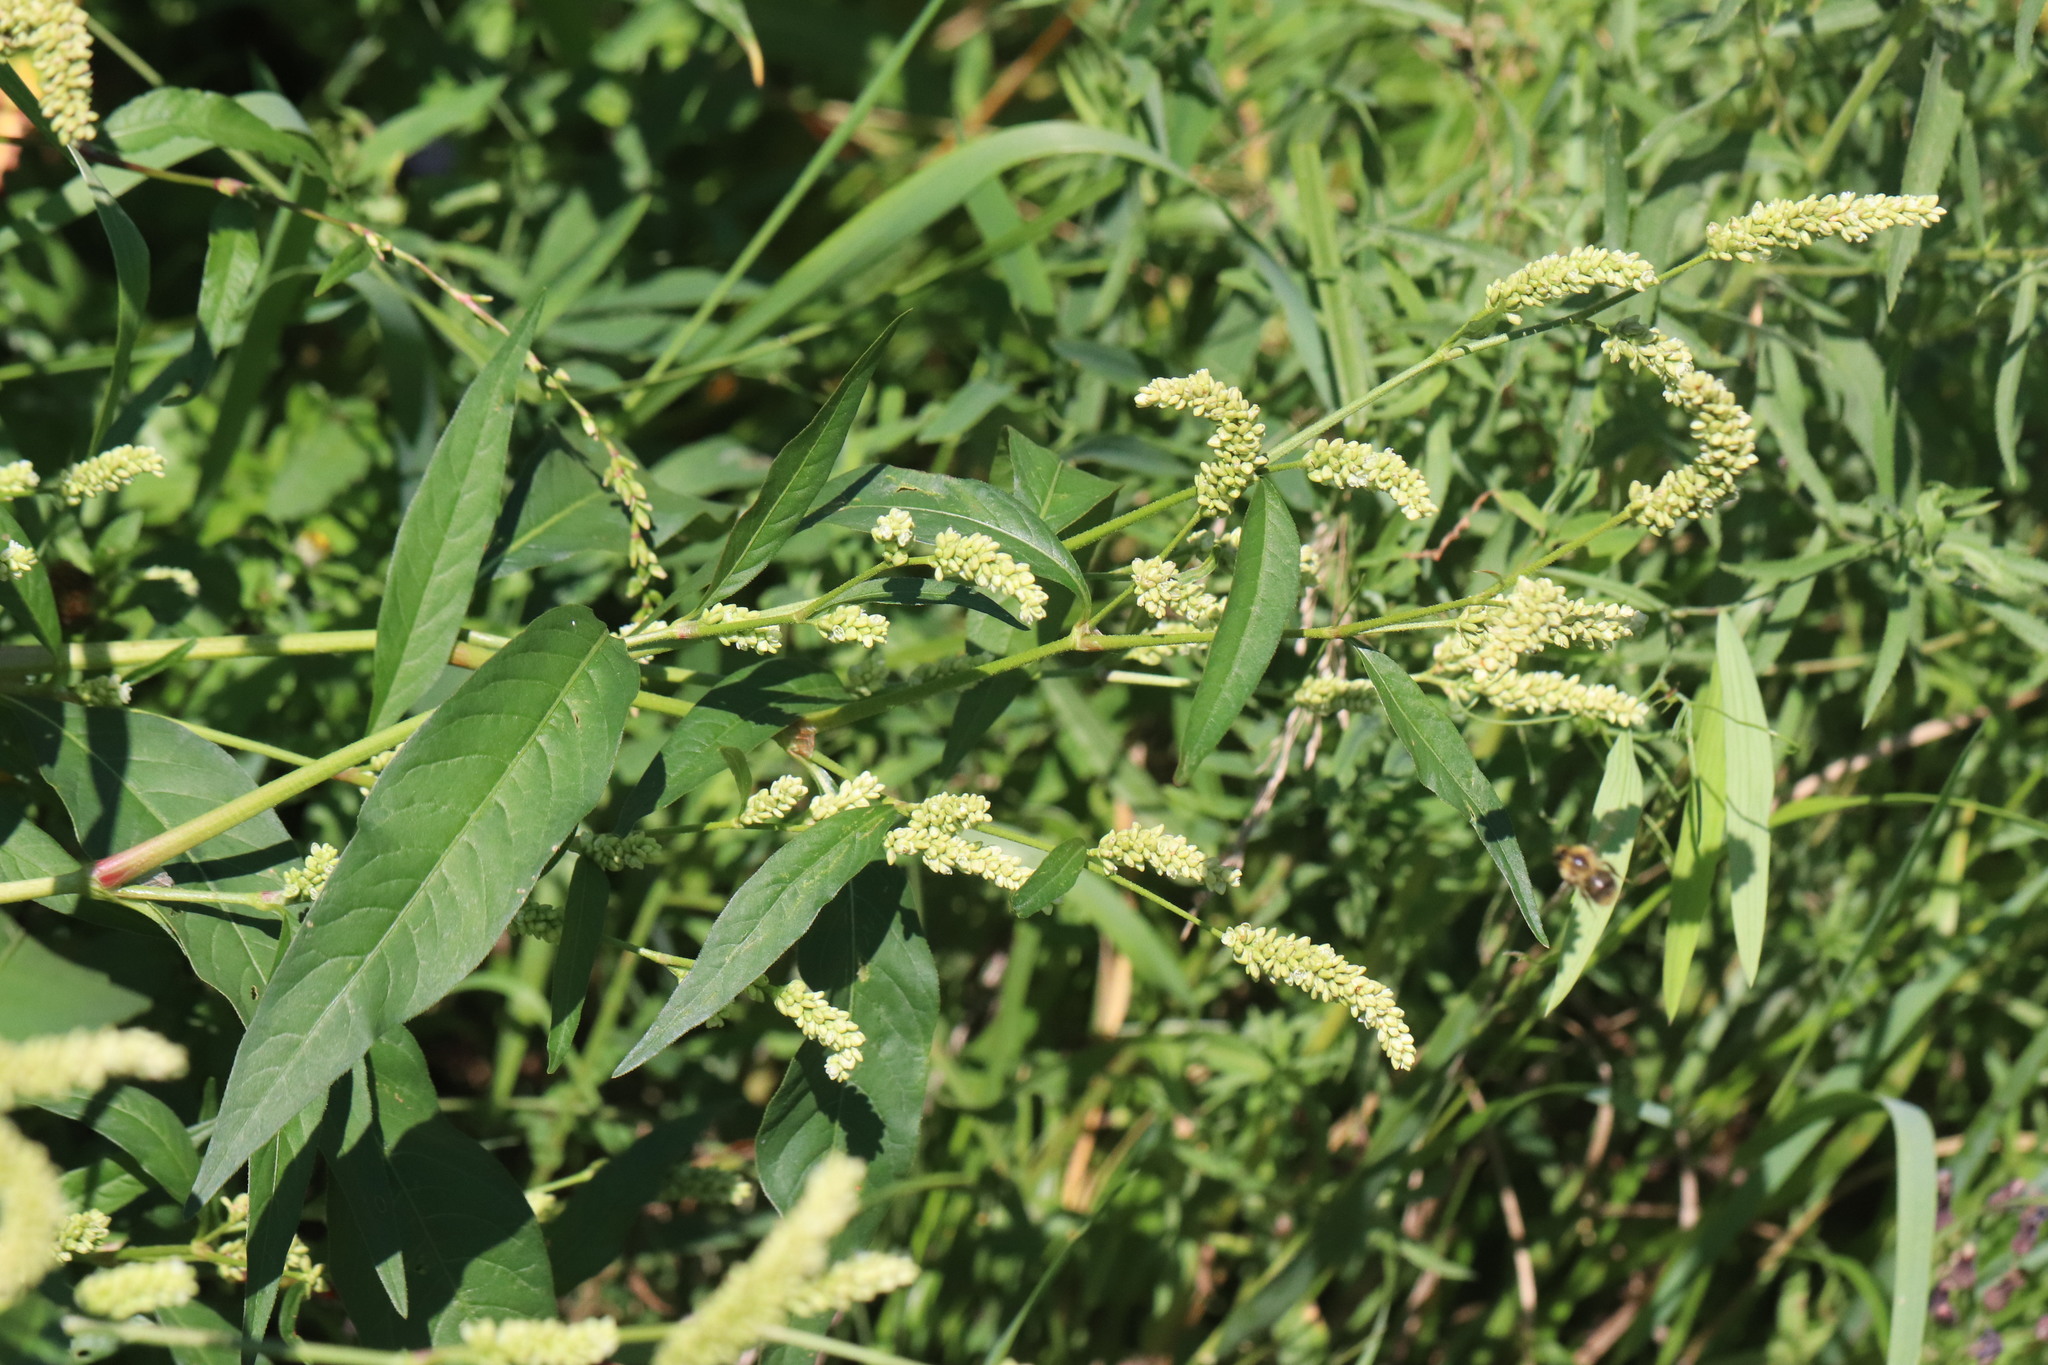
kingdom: Plantae
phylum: Tracheophyta
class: Magnoliopsida
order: Caryophyllales
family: Polygonaceae
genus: Persicaria
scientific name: Persicaria lapathifolia
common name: Curlytop knotweed
